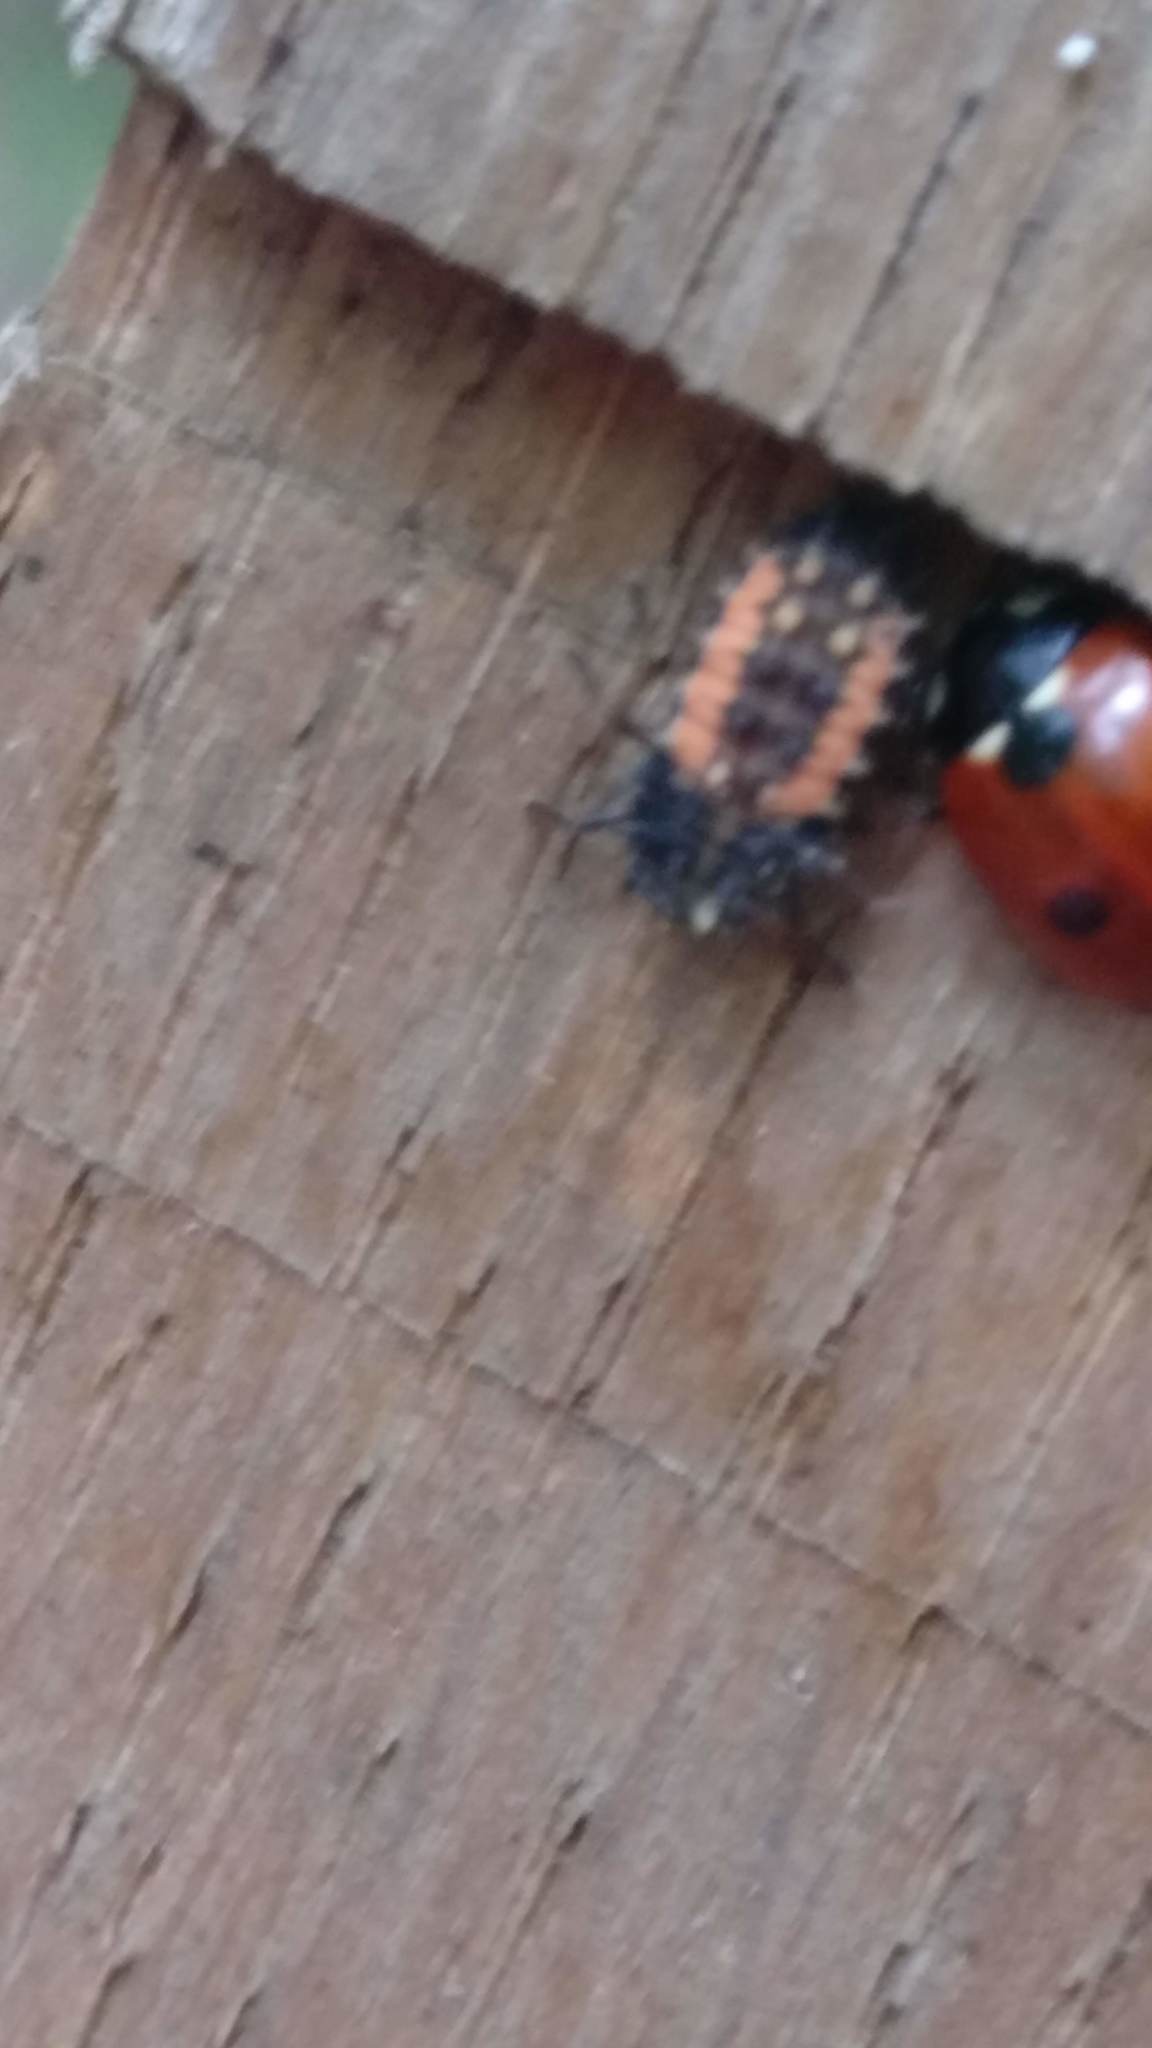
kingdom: Animalia
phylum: Arthropoda
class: Insecta
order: Coleoptera
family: Coccinellidae
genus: Harmonia
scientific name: Harmonia axyridis
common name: Harlequin ladybird
